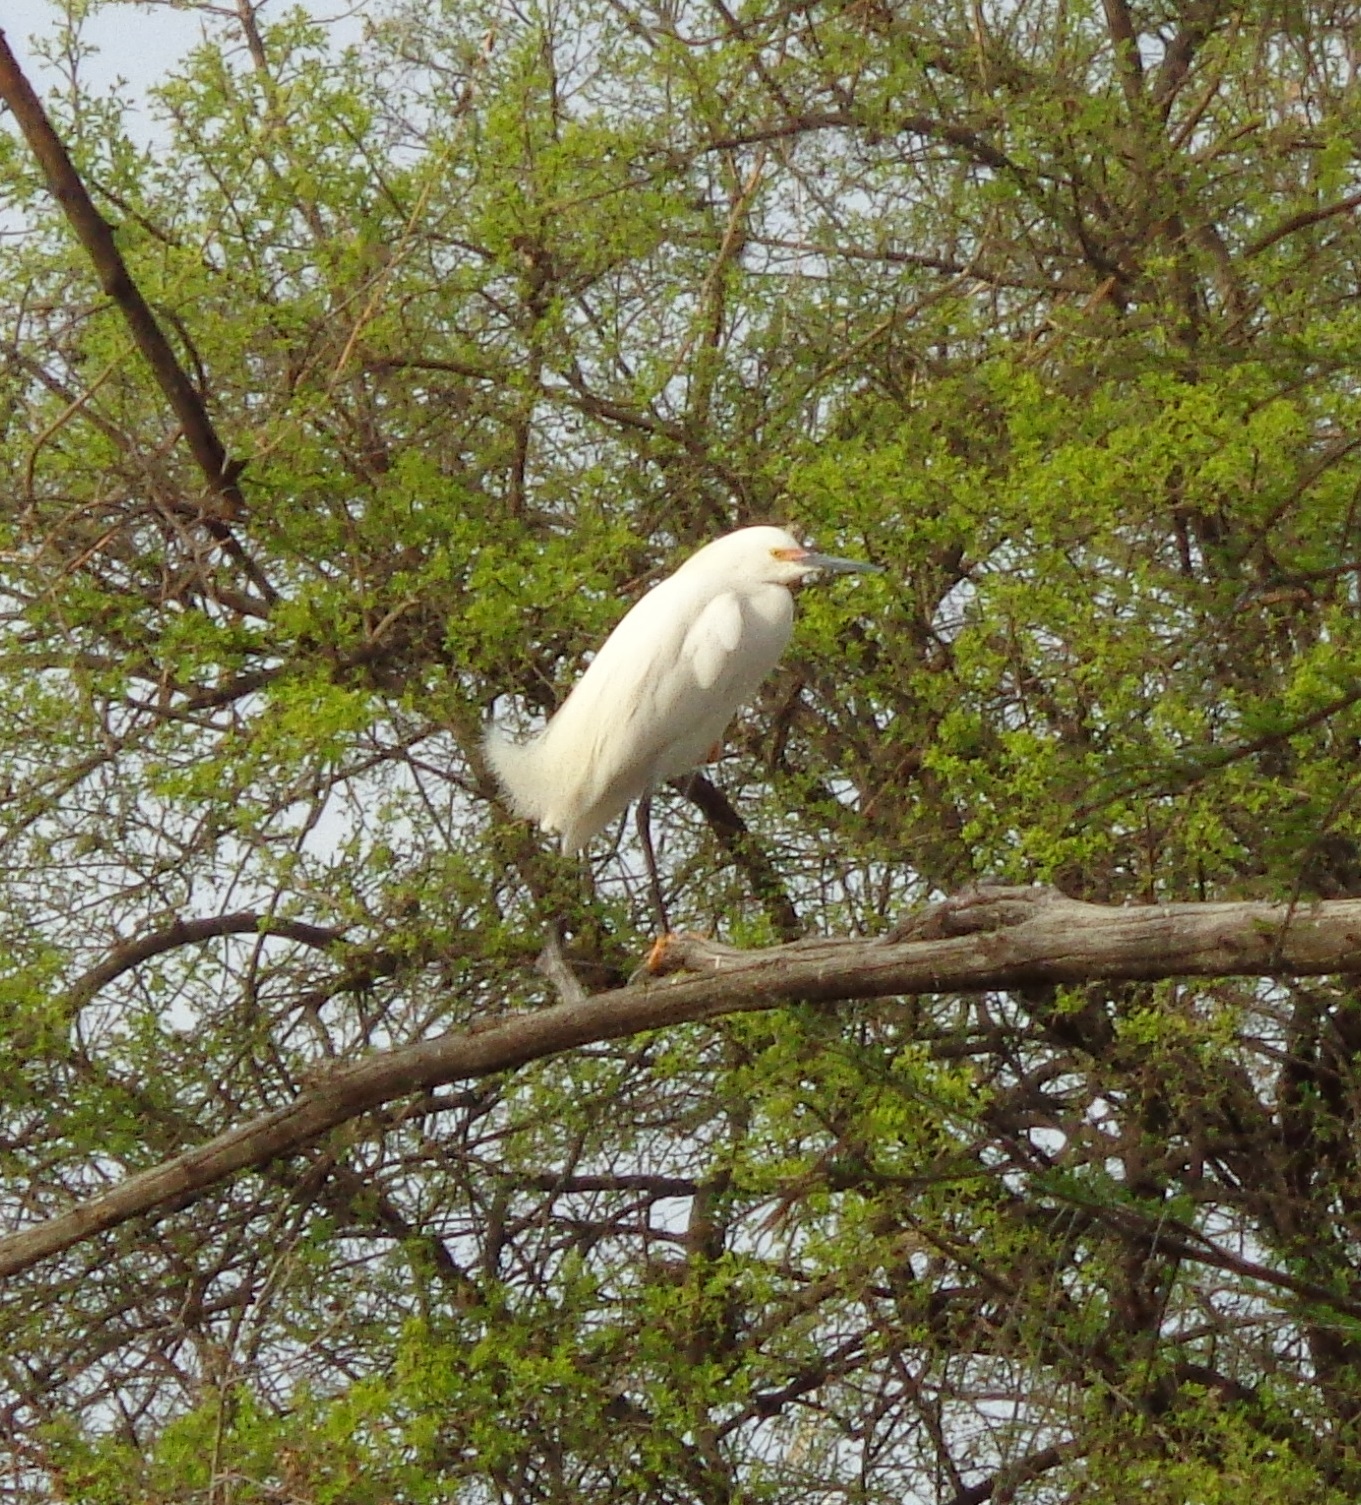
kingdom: Animalia
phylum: Chordata
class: Aves
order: Pelecaniformes
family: Ardeidae
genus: Egretta
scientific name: Egretta thula
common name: Snowy egret
